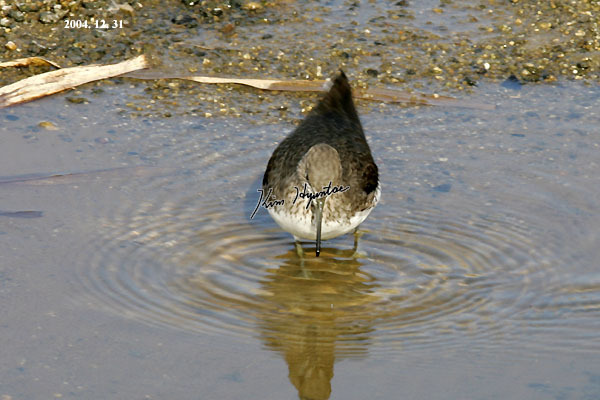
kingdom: Animalia
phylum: Chordata
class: Aves
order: Charadriiformes
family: Scolopacidae
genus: Tringa
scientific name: Tringa ochropus
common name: Green sandpiper
